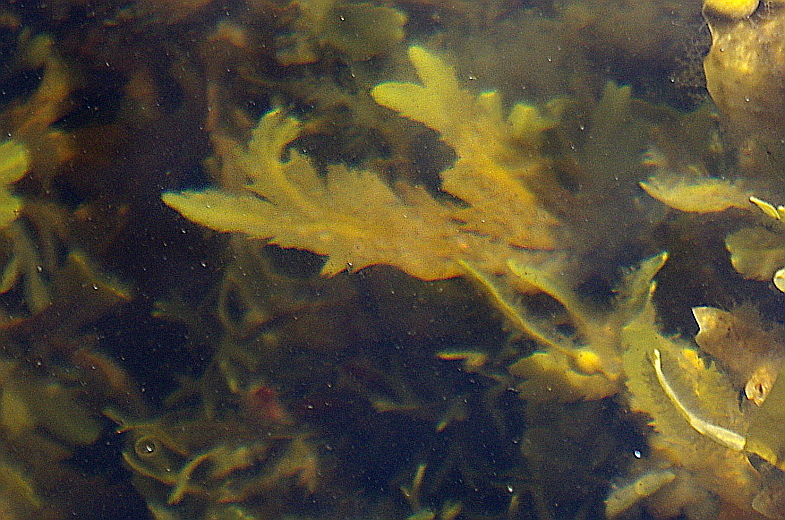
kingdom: Chromista
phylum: Ochrophyta
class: Phaeophyceae
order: Fucales
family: Fucaceae
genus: Fucus
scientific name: Fucus serratus
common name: Toothed wrack
